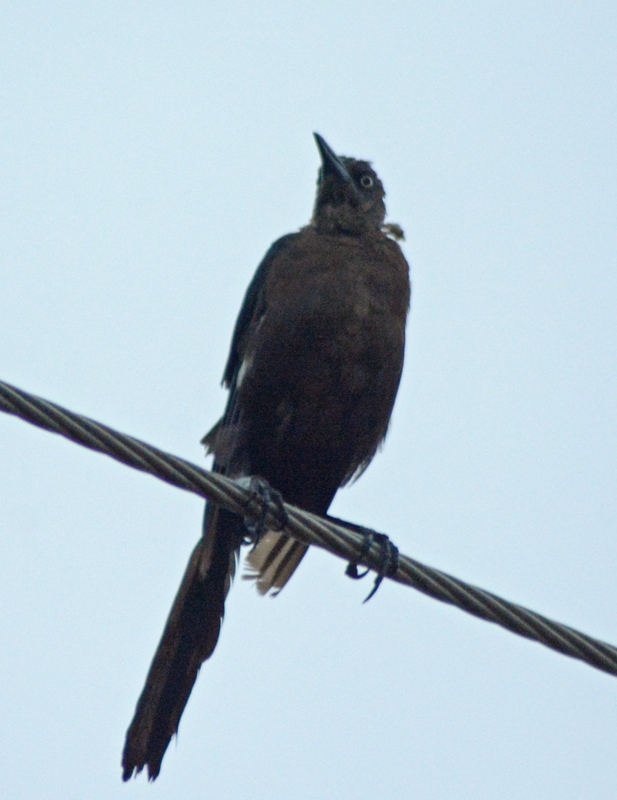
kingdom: Animalia
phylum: Chordata
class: Aves
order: Passeriformes
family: Icteridae
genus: Quiscalus
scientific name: Quiscalus mexicanus
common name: Great-tailed grackle
